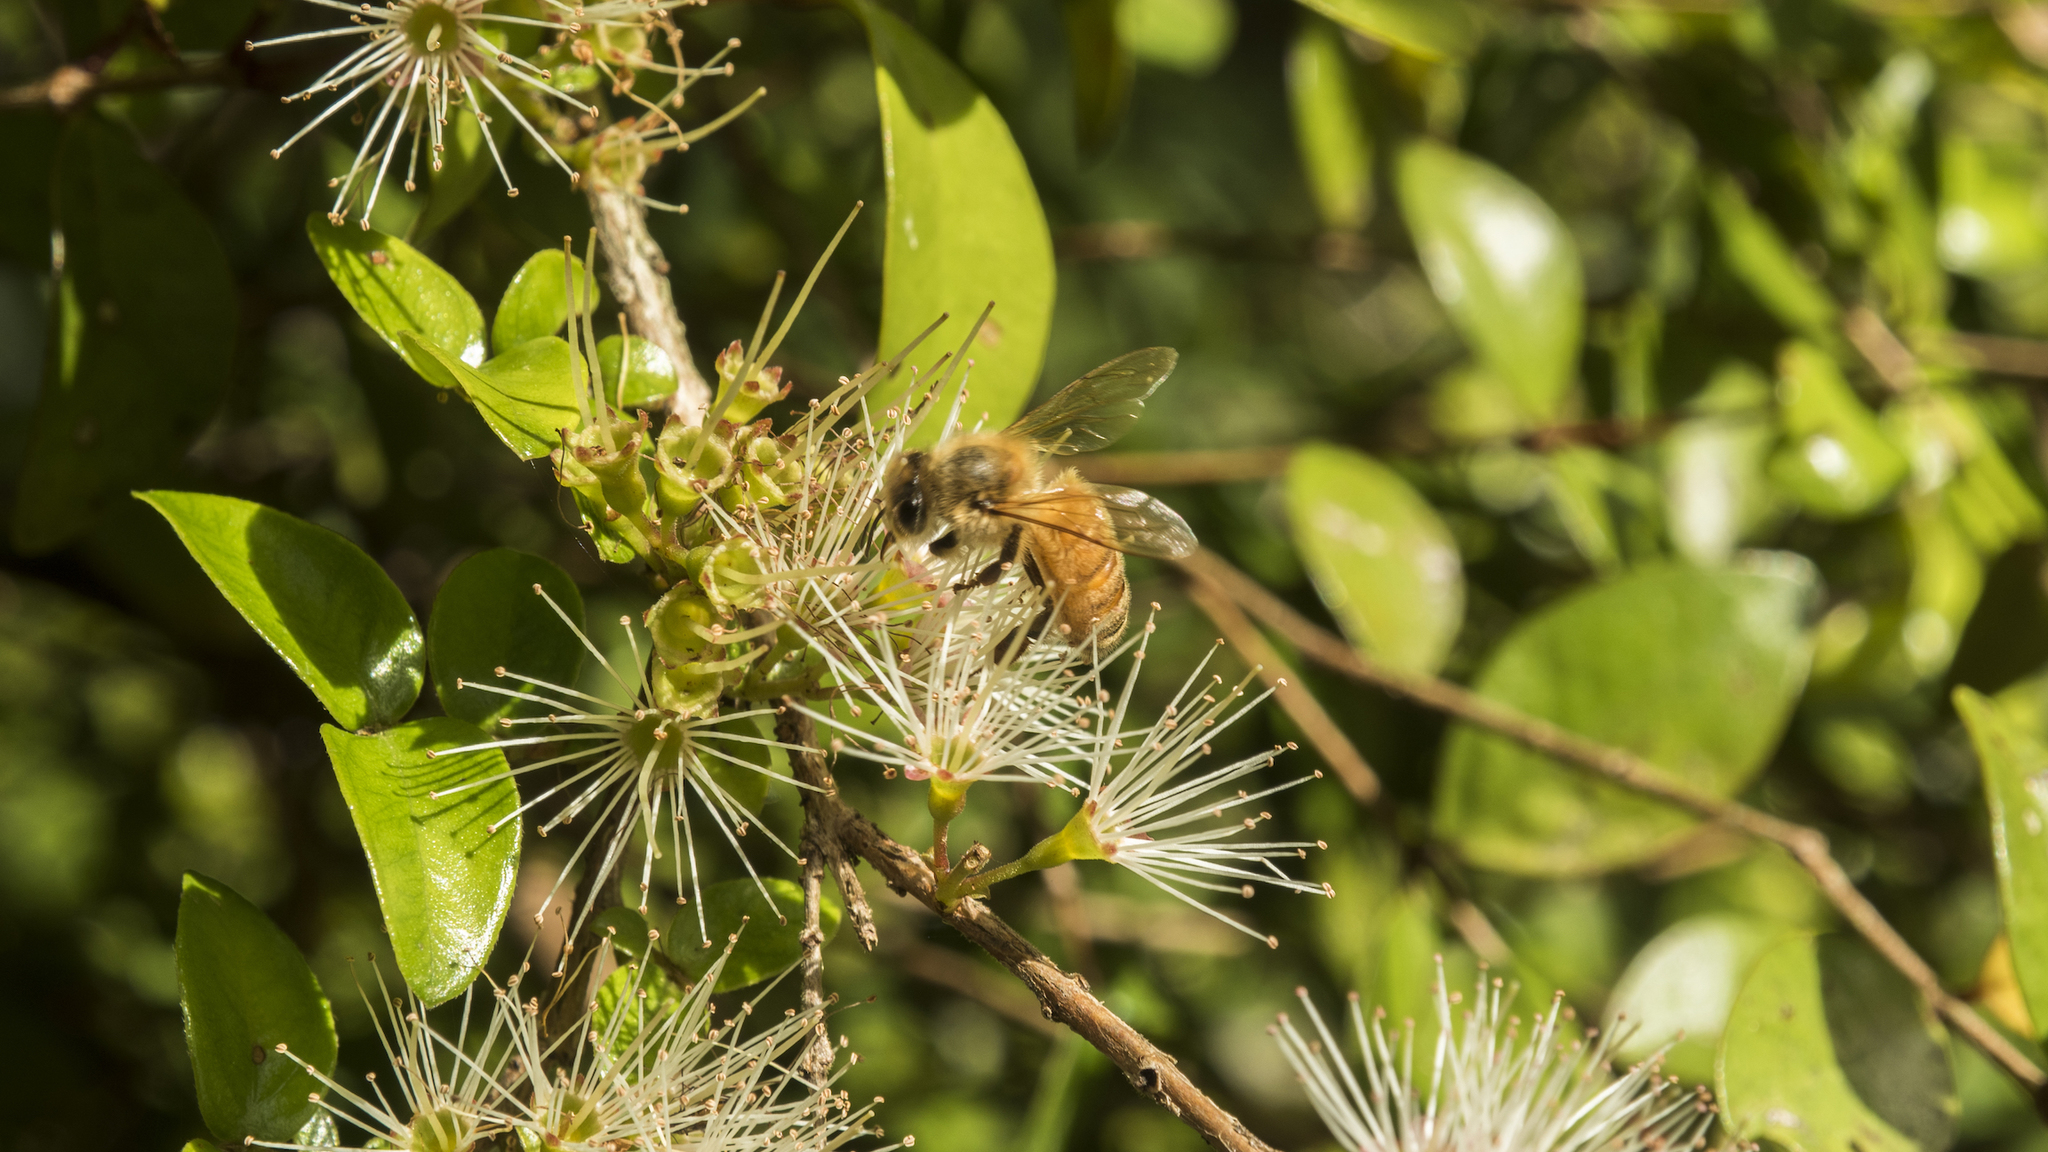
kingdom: Animalia
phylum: Arthropoda
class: Insecta
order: Hymenoptera
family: Apidae
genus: Apis
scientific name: Apis mellifera
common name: Honey bee
